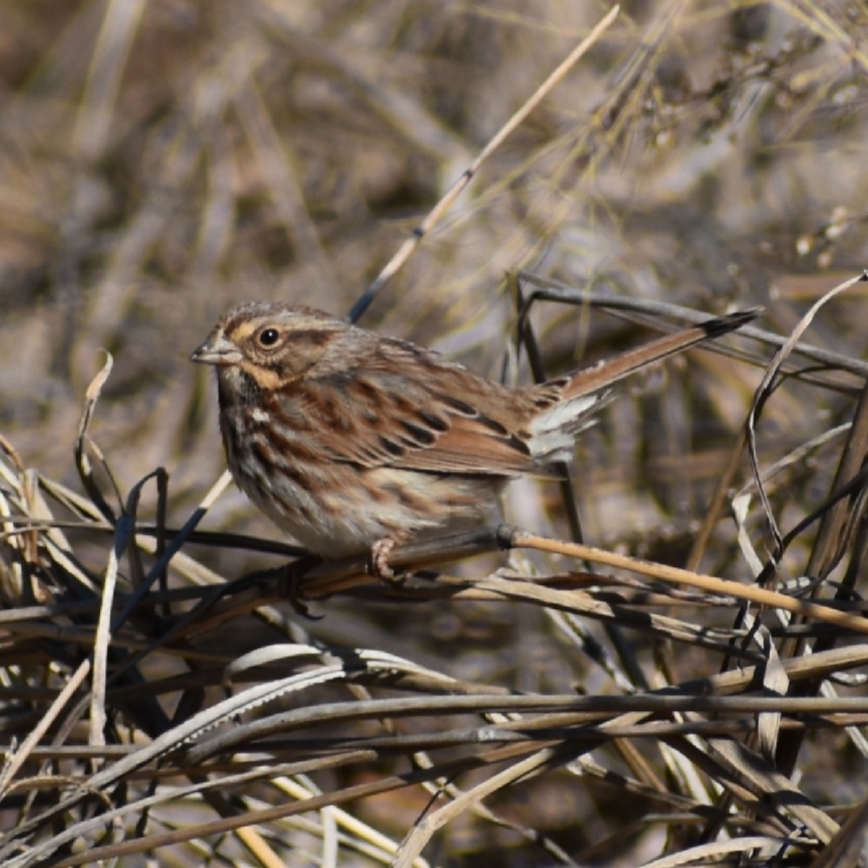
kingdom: Animalia
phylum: Chordata
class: Aves
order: Passeriformes
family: Passerellidae
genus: Melospiza
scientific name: Melospiza melodia
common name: Song sparrow
